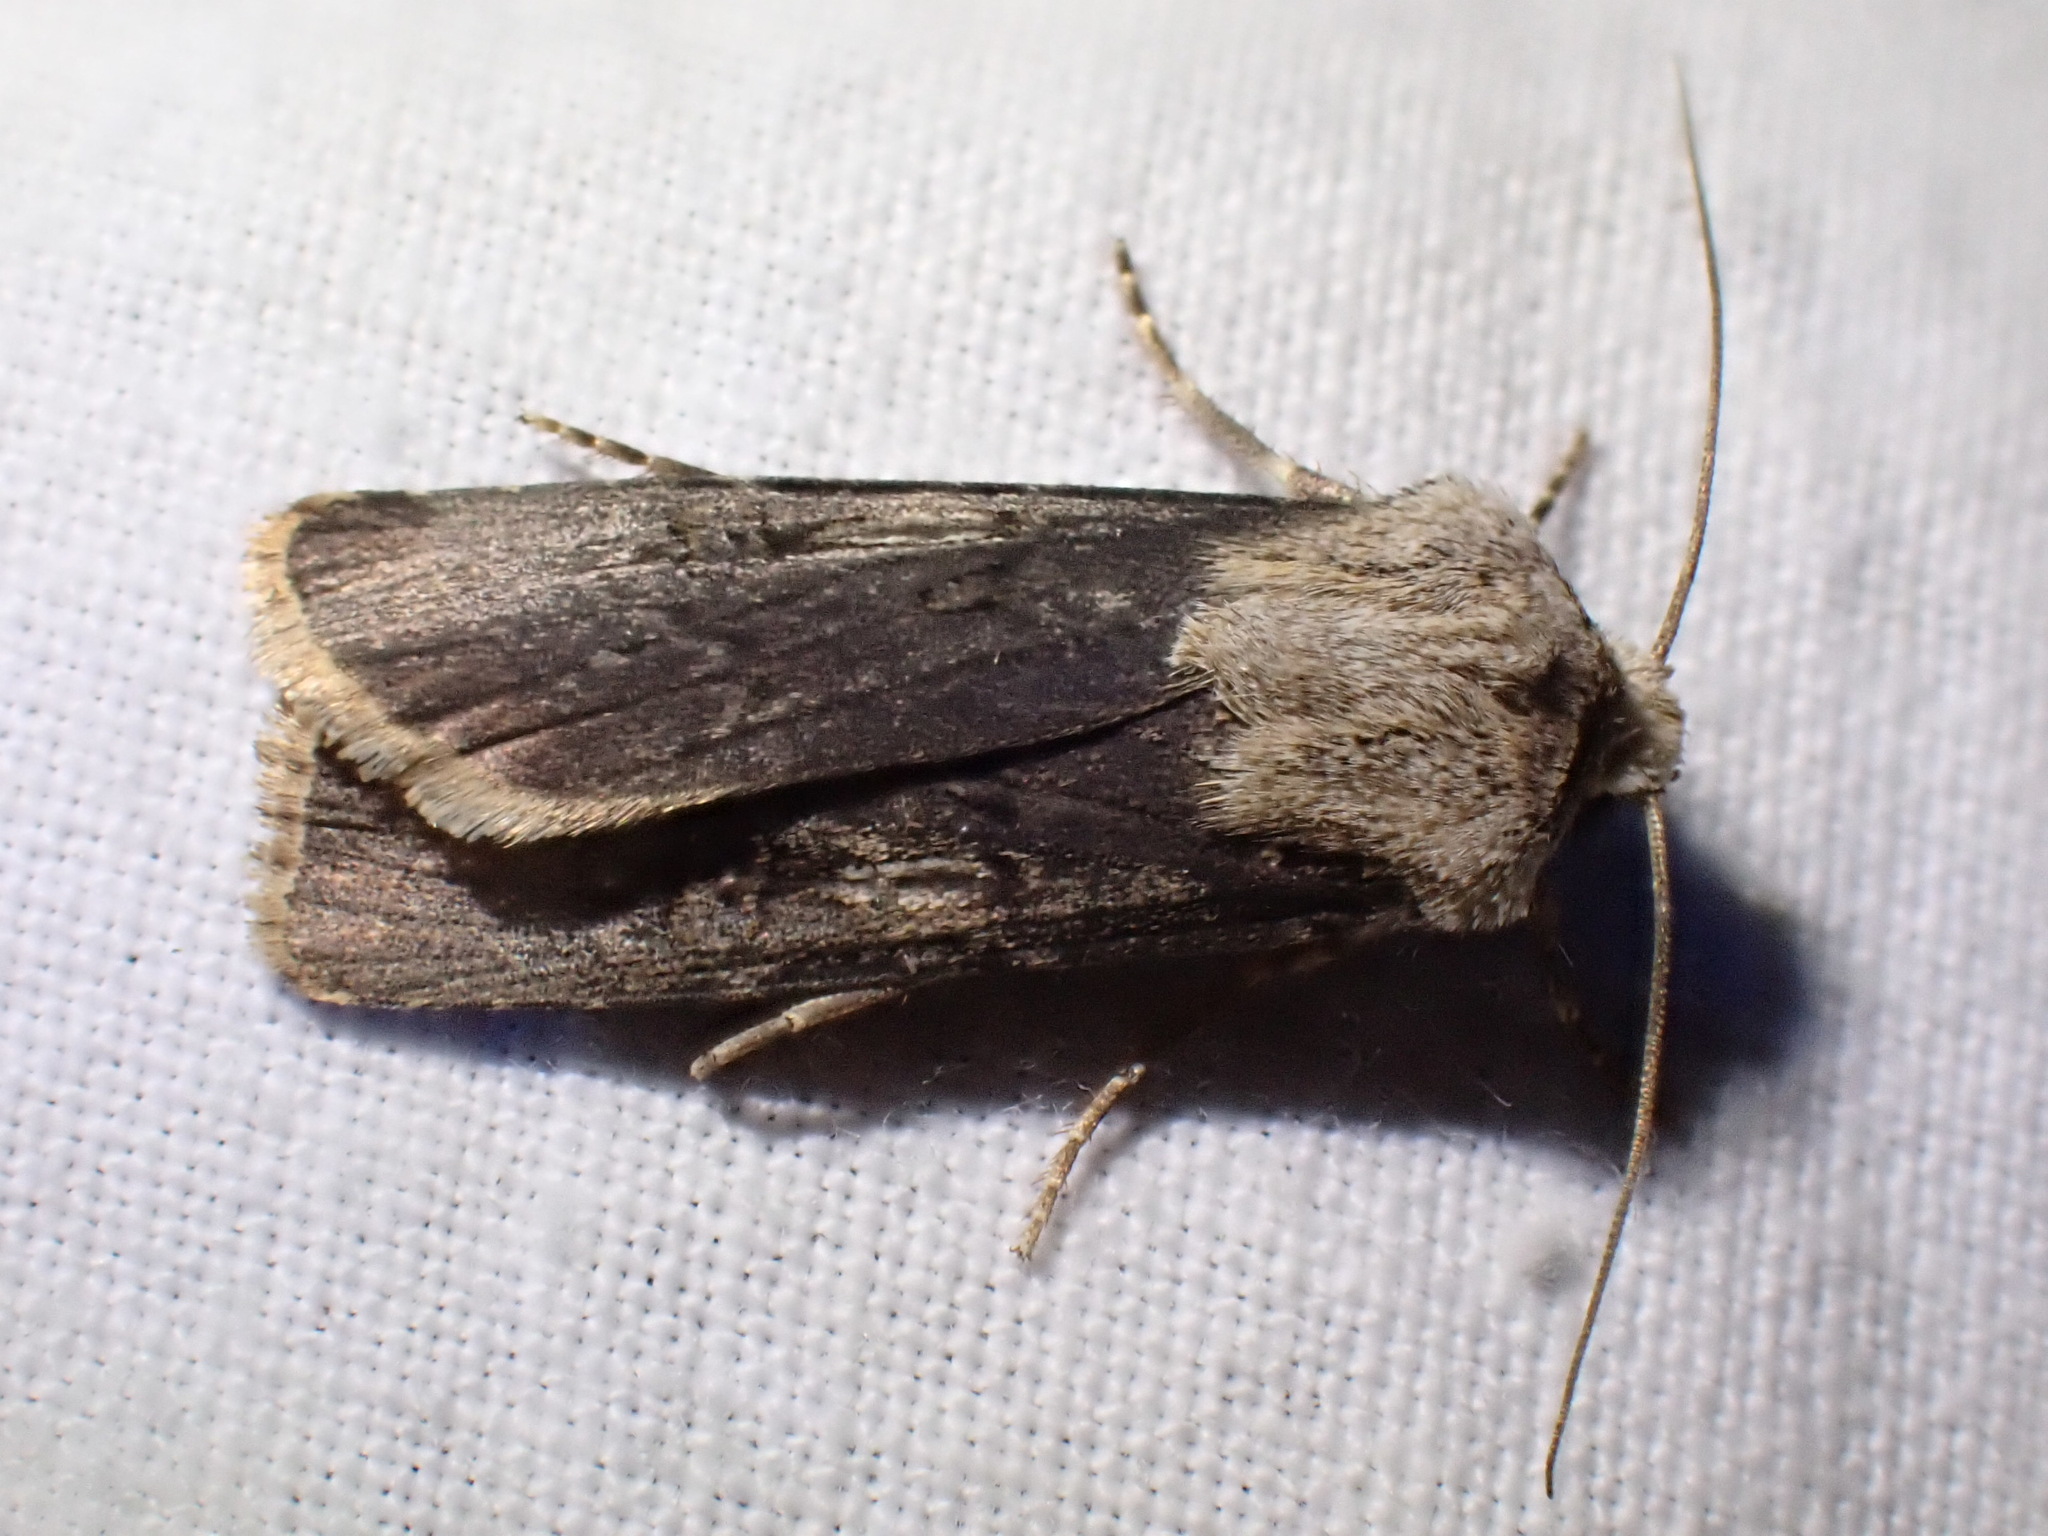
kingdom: Animalia
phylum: Arthropoda
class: Insecta
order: Lepidoptera
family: Noctuidae
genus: Agrotis
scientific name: Agrotis puta
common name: Shuttle-shaped dart
